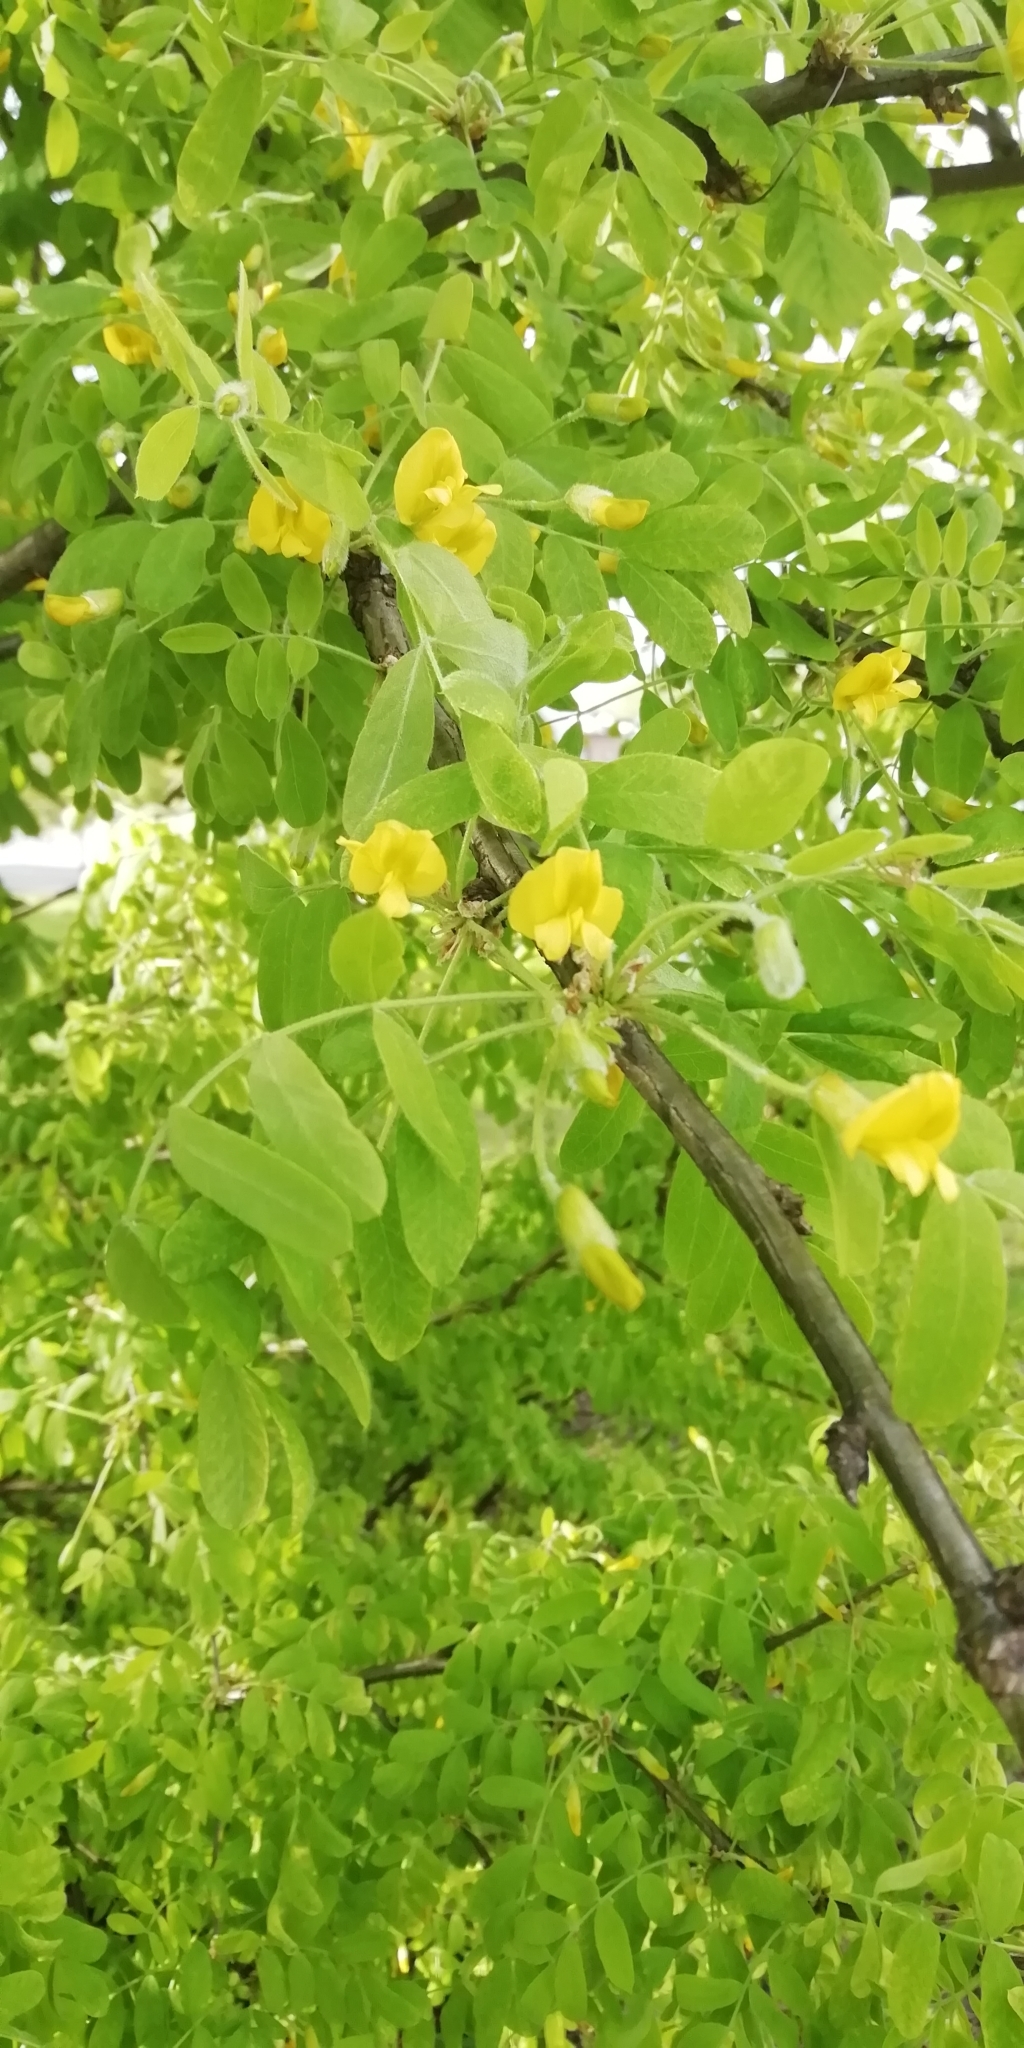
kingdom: Plantae
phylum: Tracheophyta
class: Magnoliopsida
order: Fabales
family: Fabaceae
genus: Caragana
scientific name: Caragana arborescens
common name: Siberian peashrub
